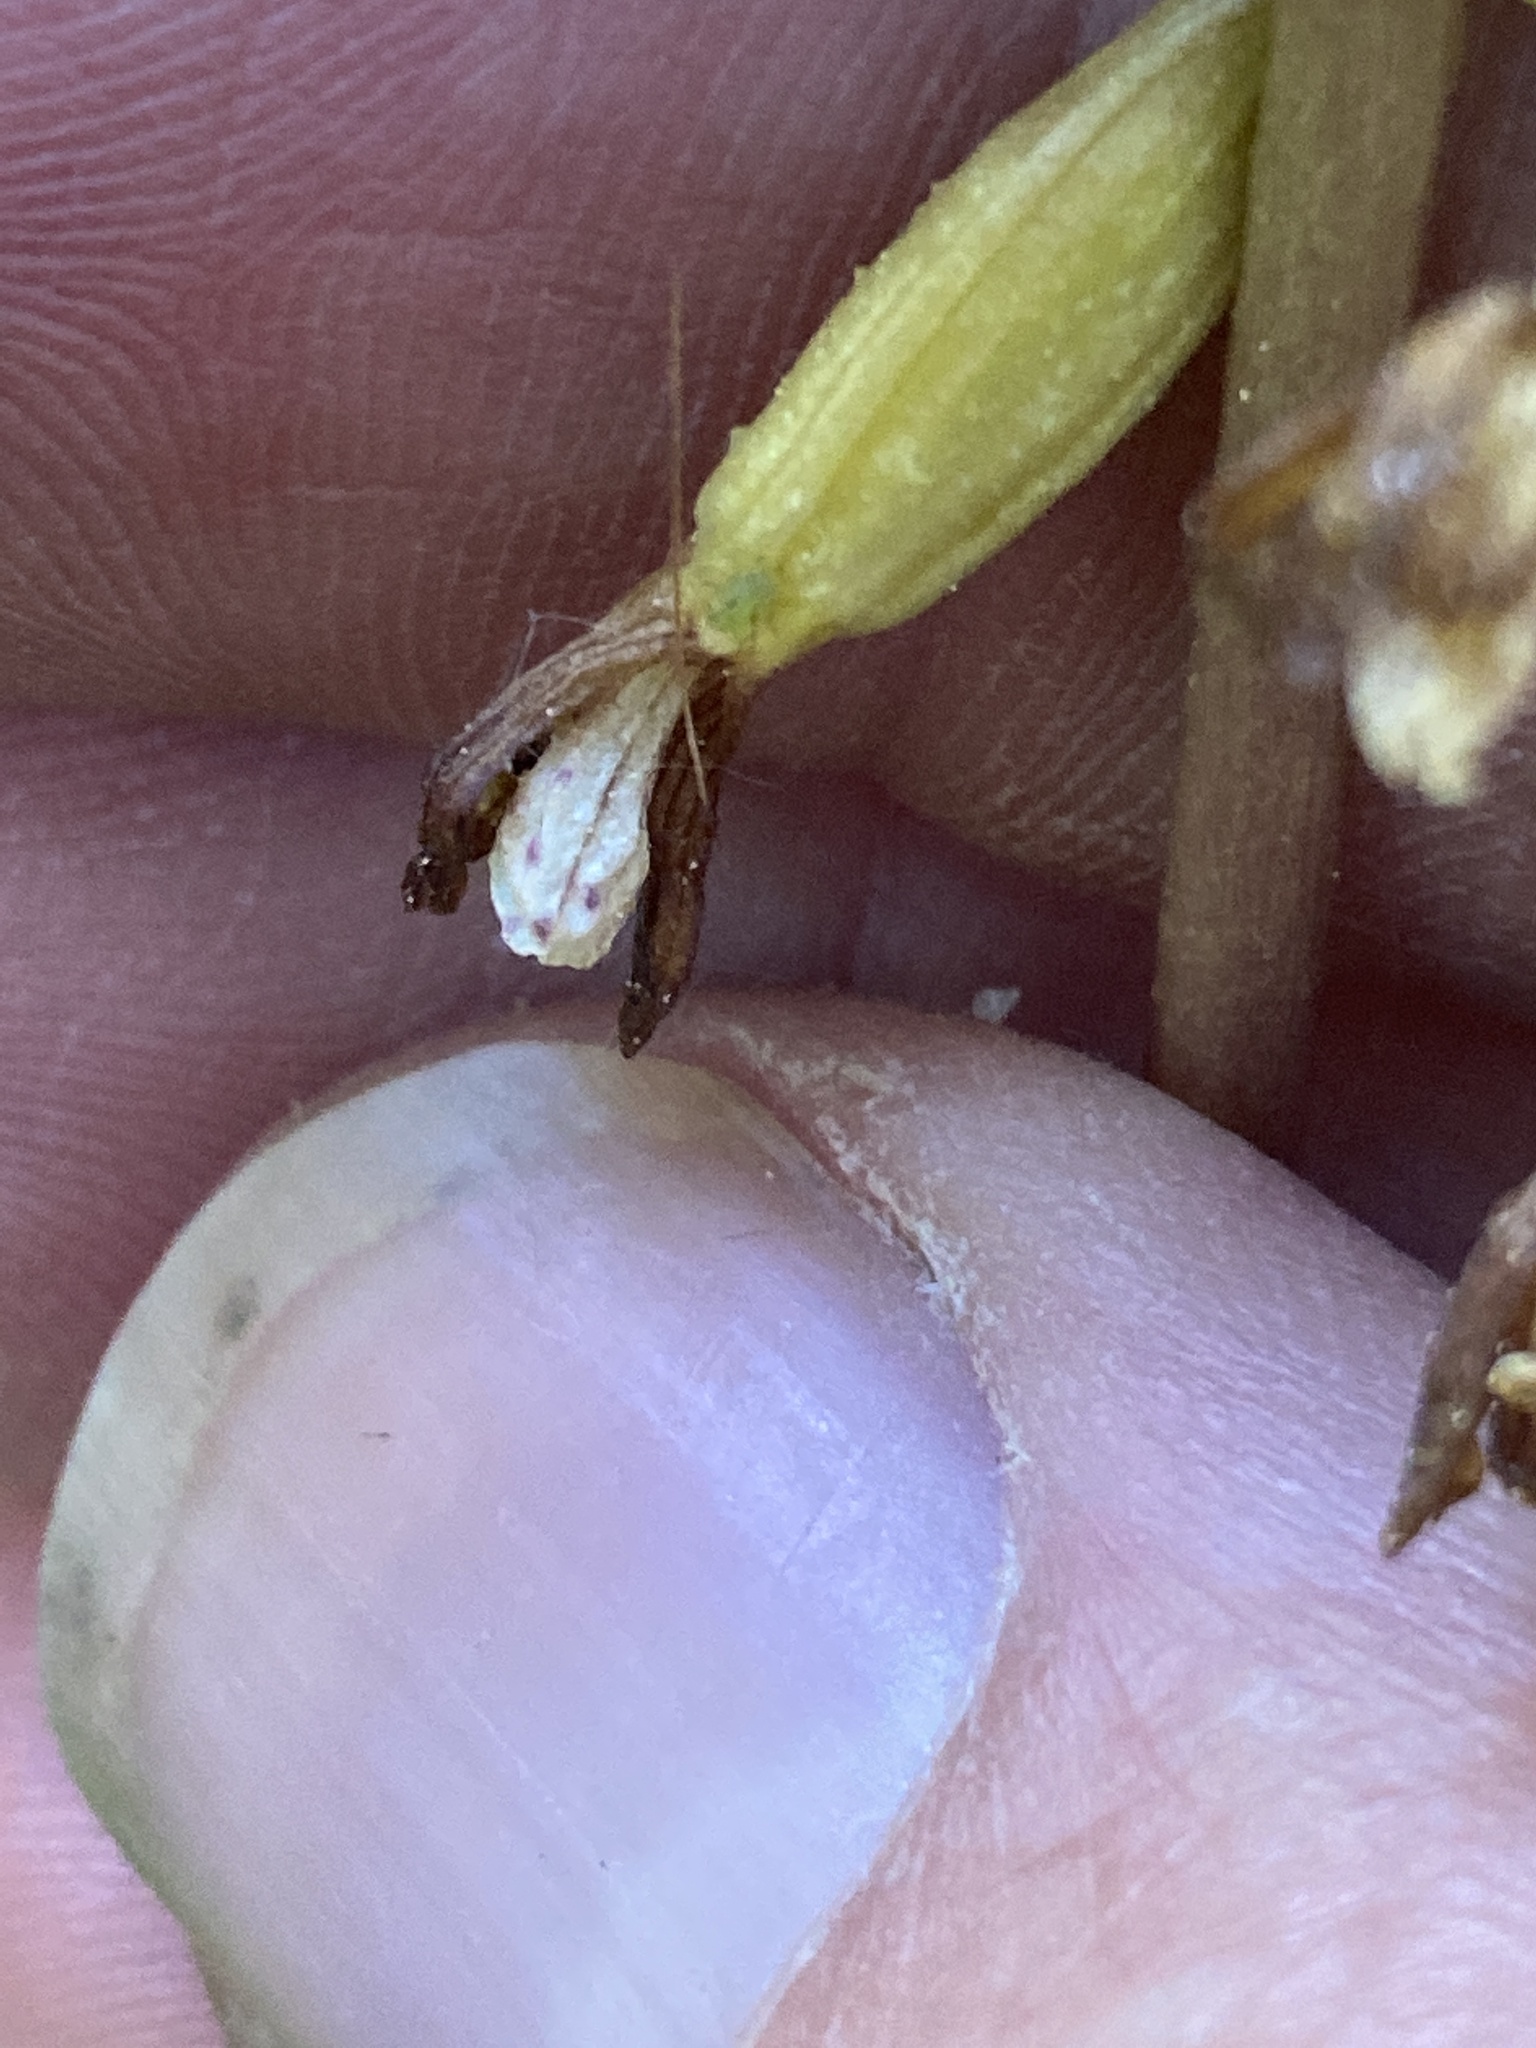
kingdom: Plantae
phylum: Tracheophyta
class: Liliopsida
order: Asparagales
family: Orchidaceae
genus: Corallorhiza
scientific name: Corallorhiza wisteriana
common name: Spring coralroot
